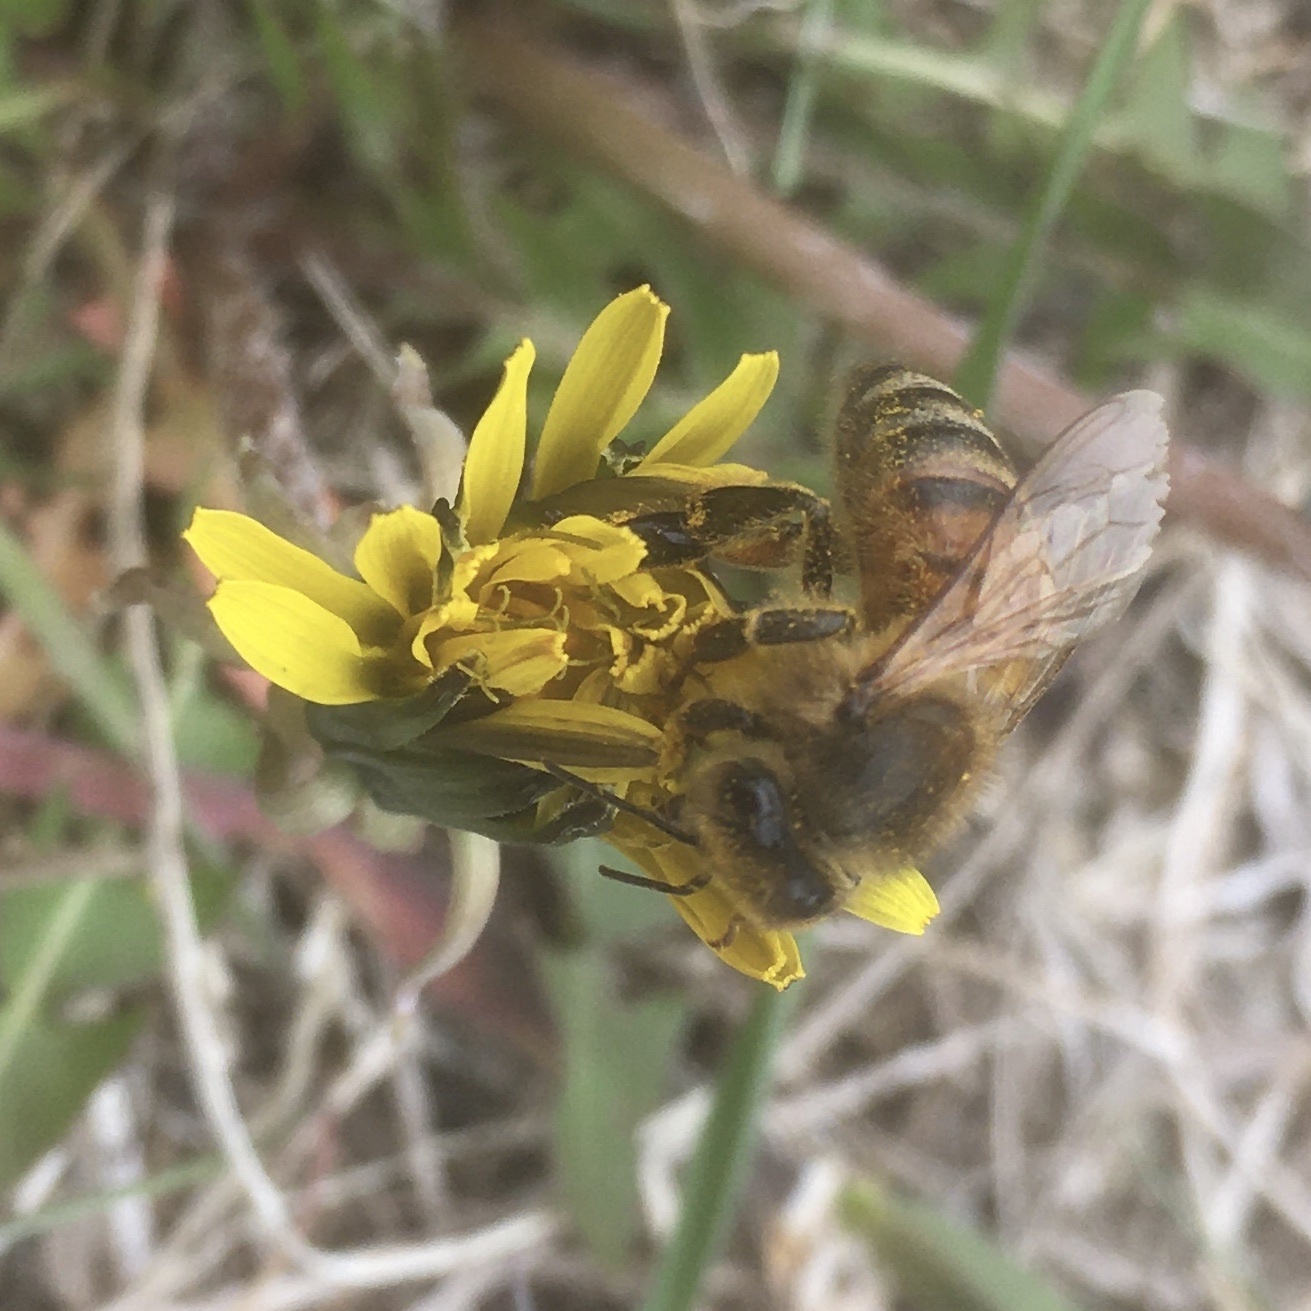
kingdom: Animalia
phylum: Arthropoda
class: Insecta
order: Hymenoptera
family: Apidae
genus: Apis
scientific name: Apis mellifera
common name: Honey bee
